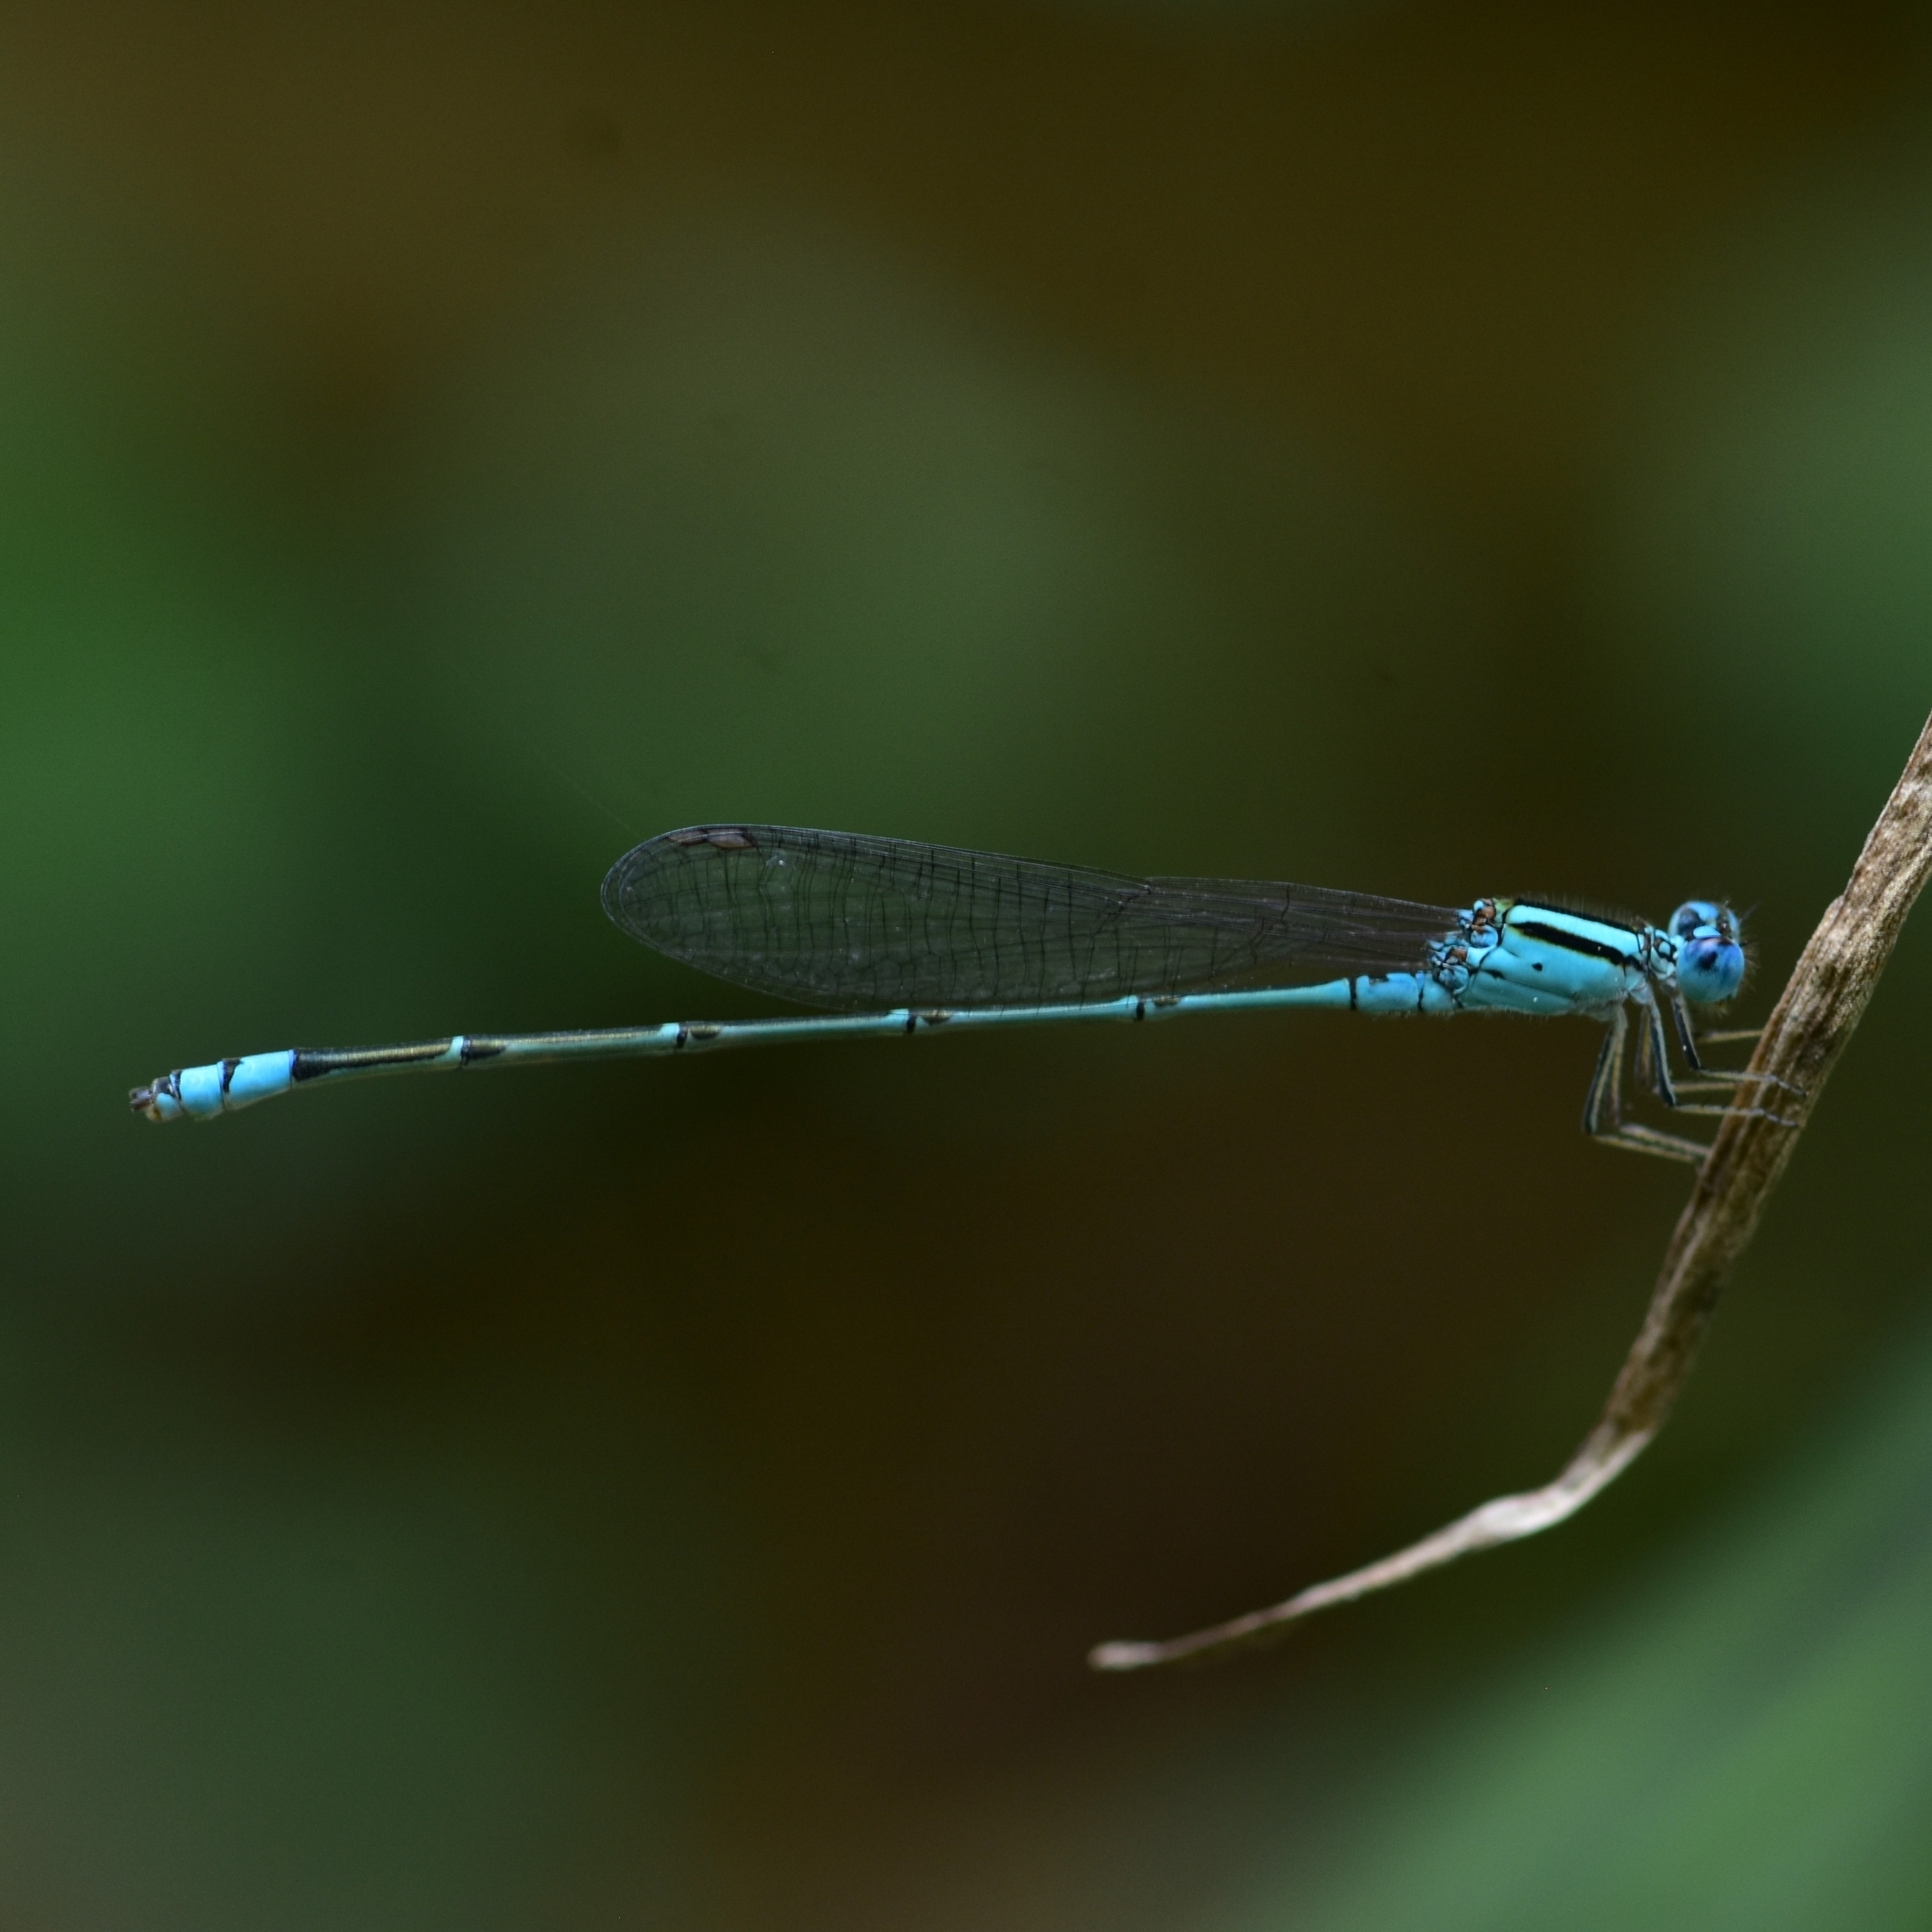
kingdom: Animalia
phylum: Arthropoda
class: Insecta
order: Odonata
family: Coenagrionidae
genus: Pseudagrion
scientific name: Pseudagrion microcephalum
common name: Blue riverdamsel
